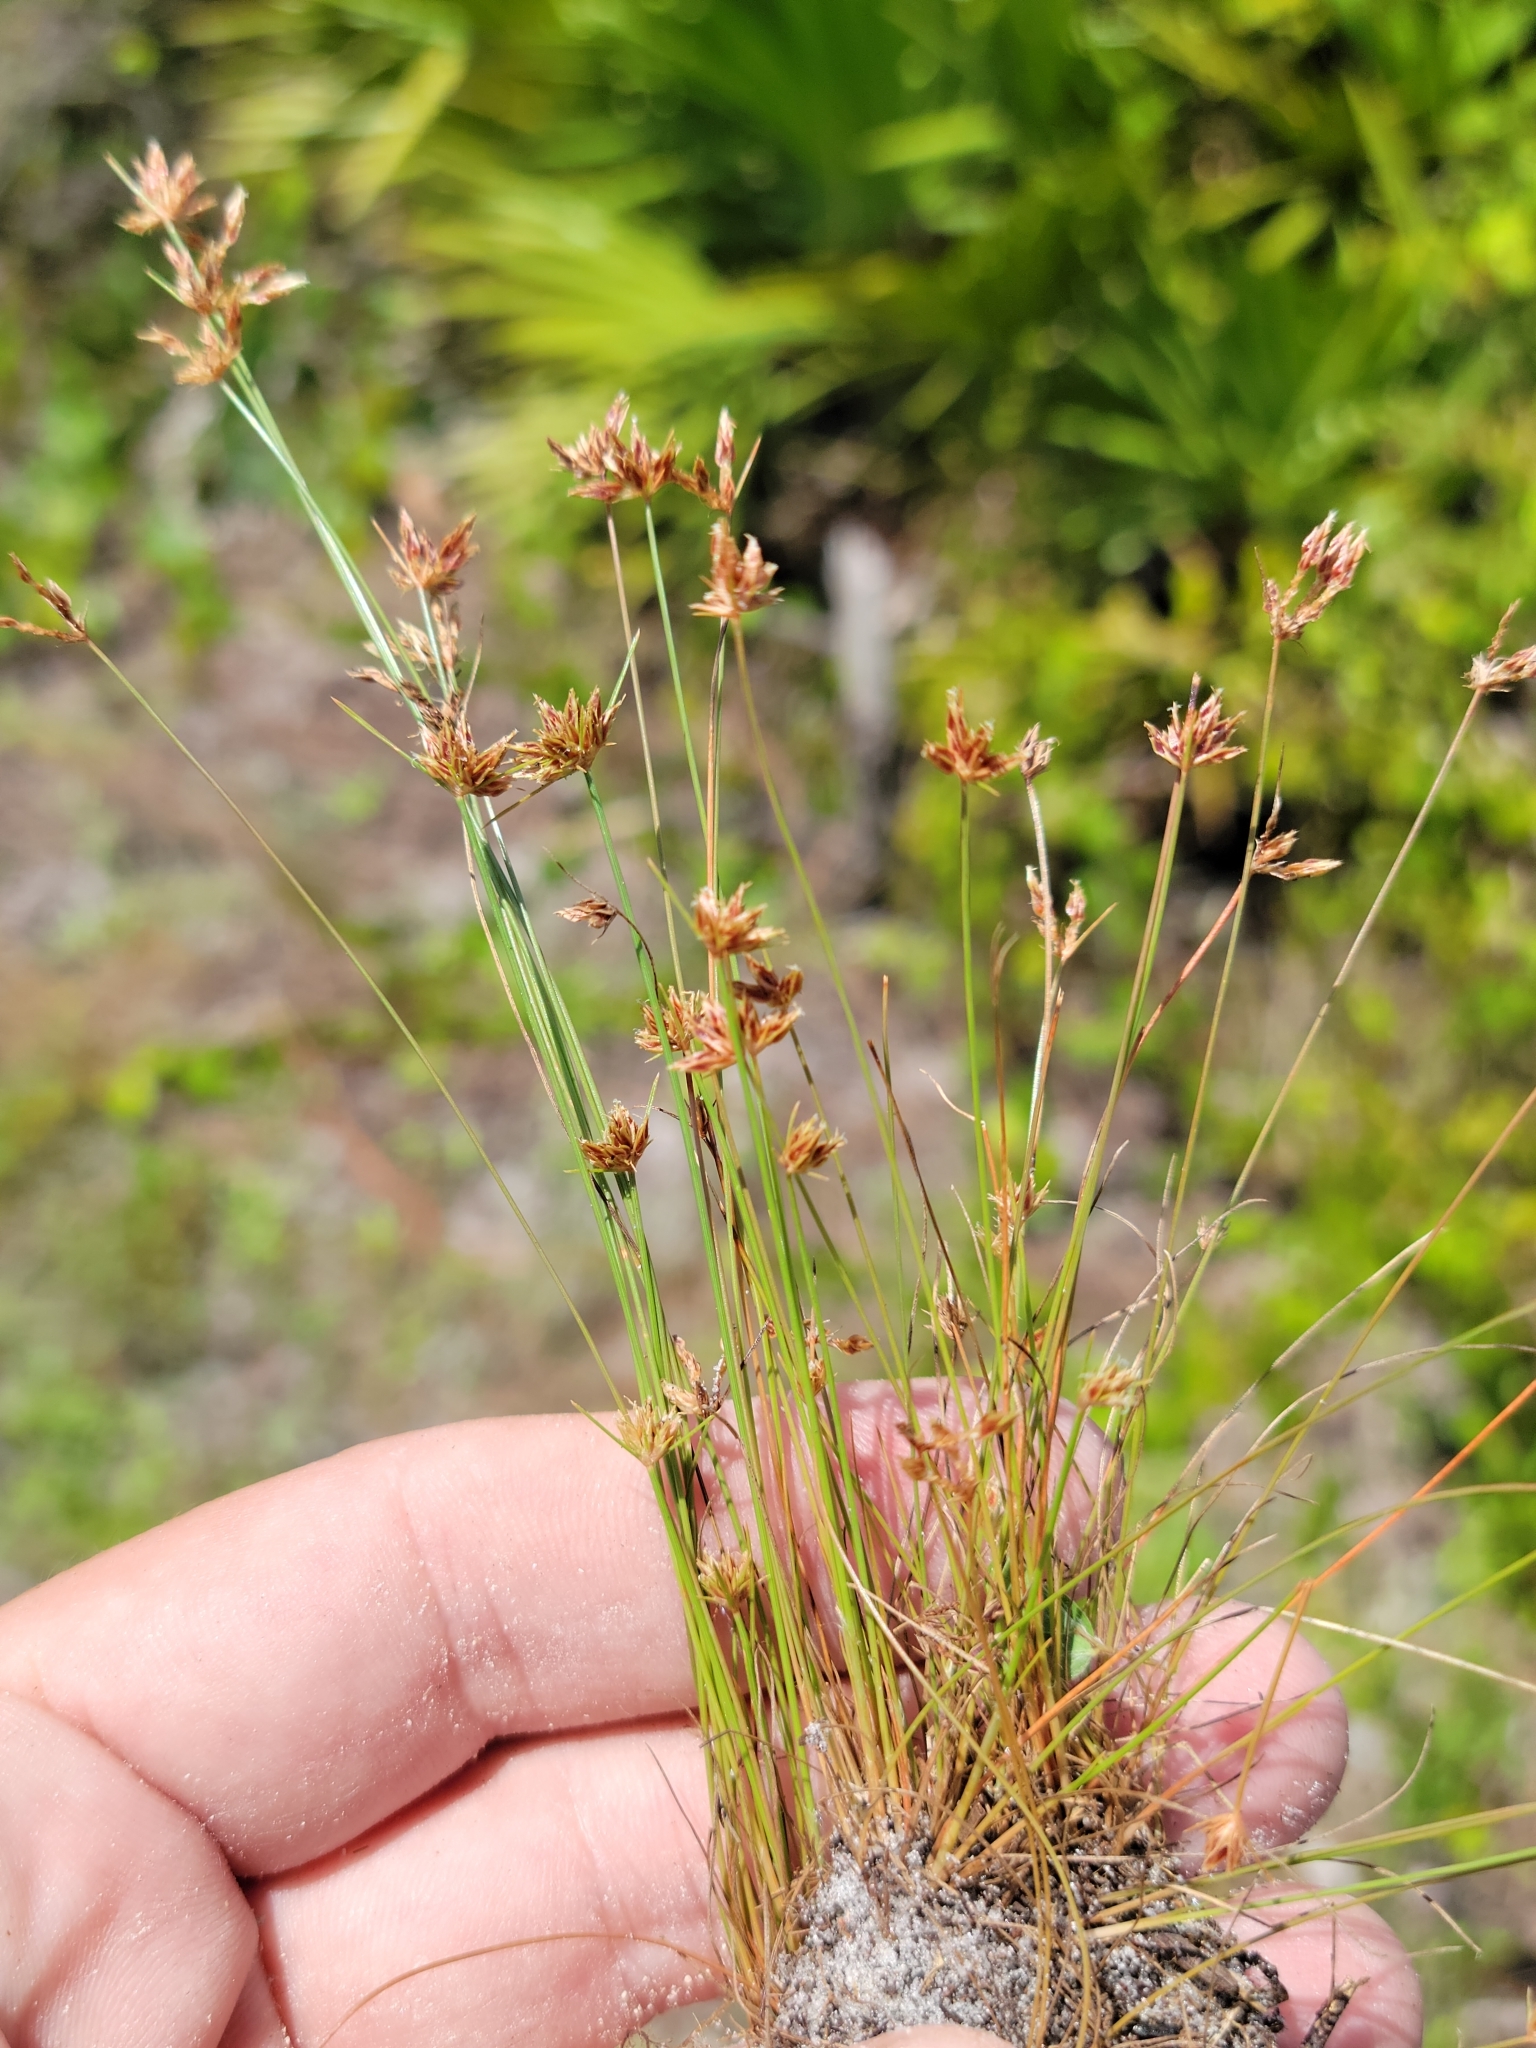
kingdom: Plantae
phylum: Tracheophyta
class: Liliopsida
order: Poales
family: Cyperaceae
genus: Bulbostylis
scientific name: Bulbostylis barbata
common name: Watergrass
